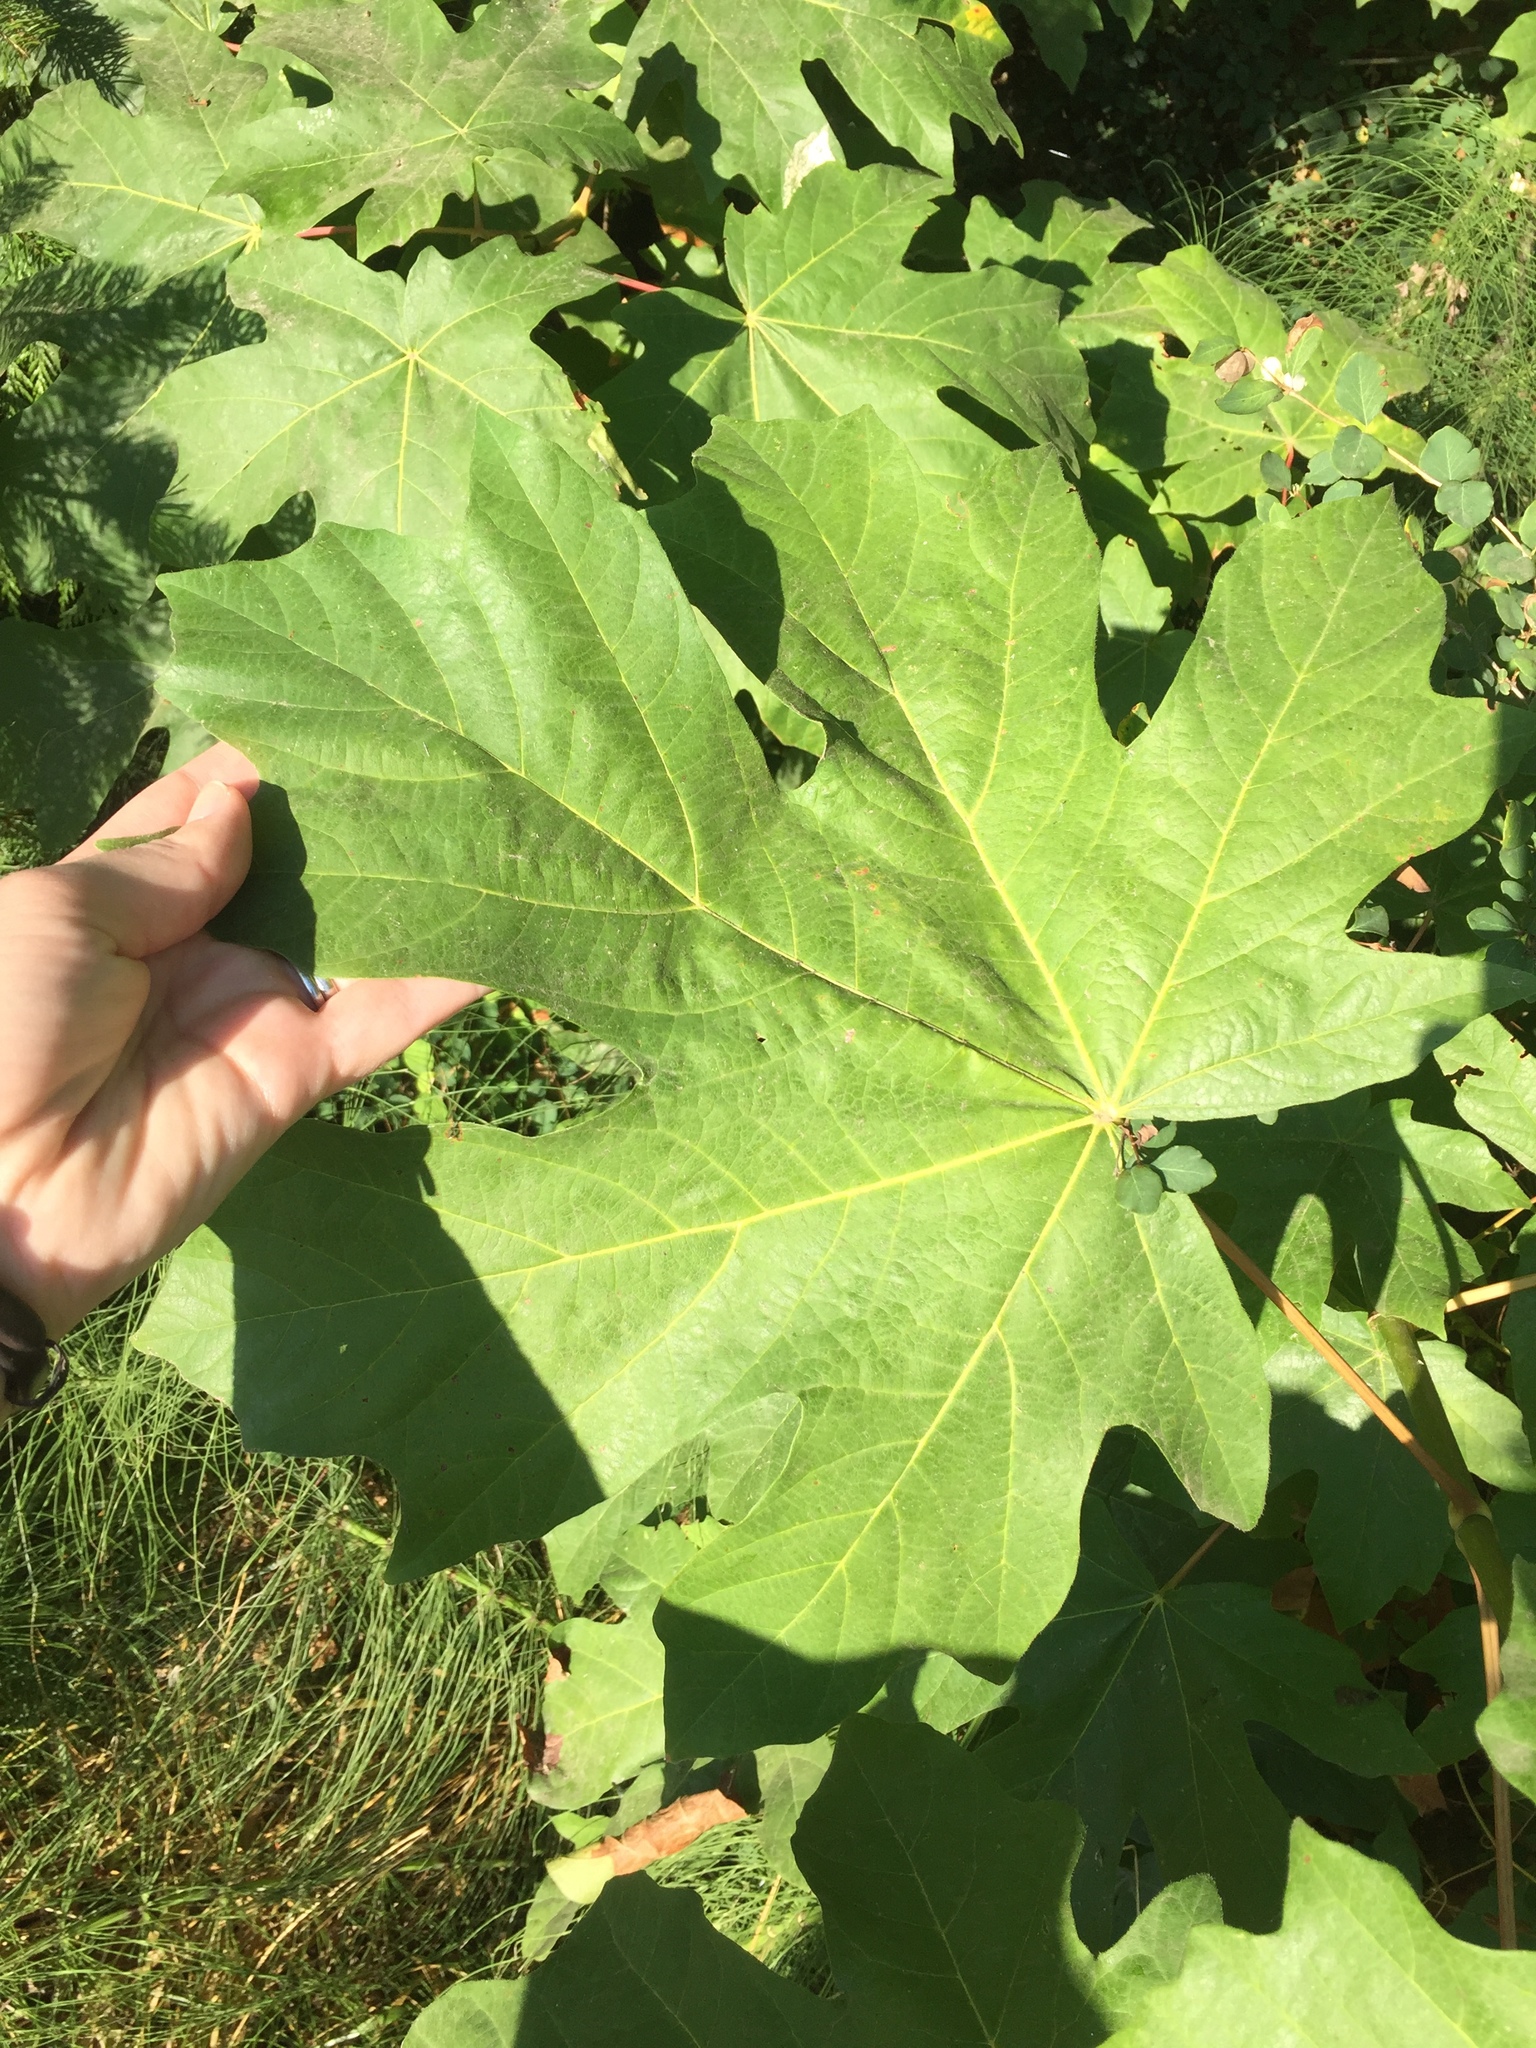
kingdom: Plantae
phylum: Tracheophyta
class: Magnoliopsida
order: Sapindales
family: Sapindaceae
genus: Acer
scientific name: Acer macrophyllum
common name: Oregon maple
